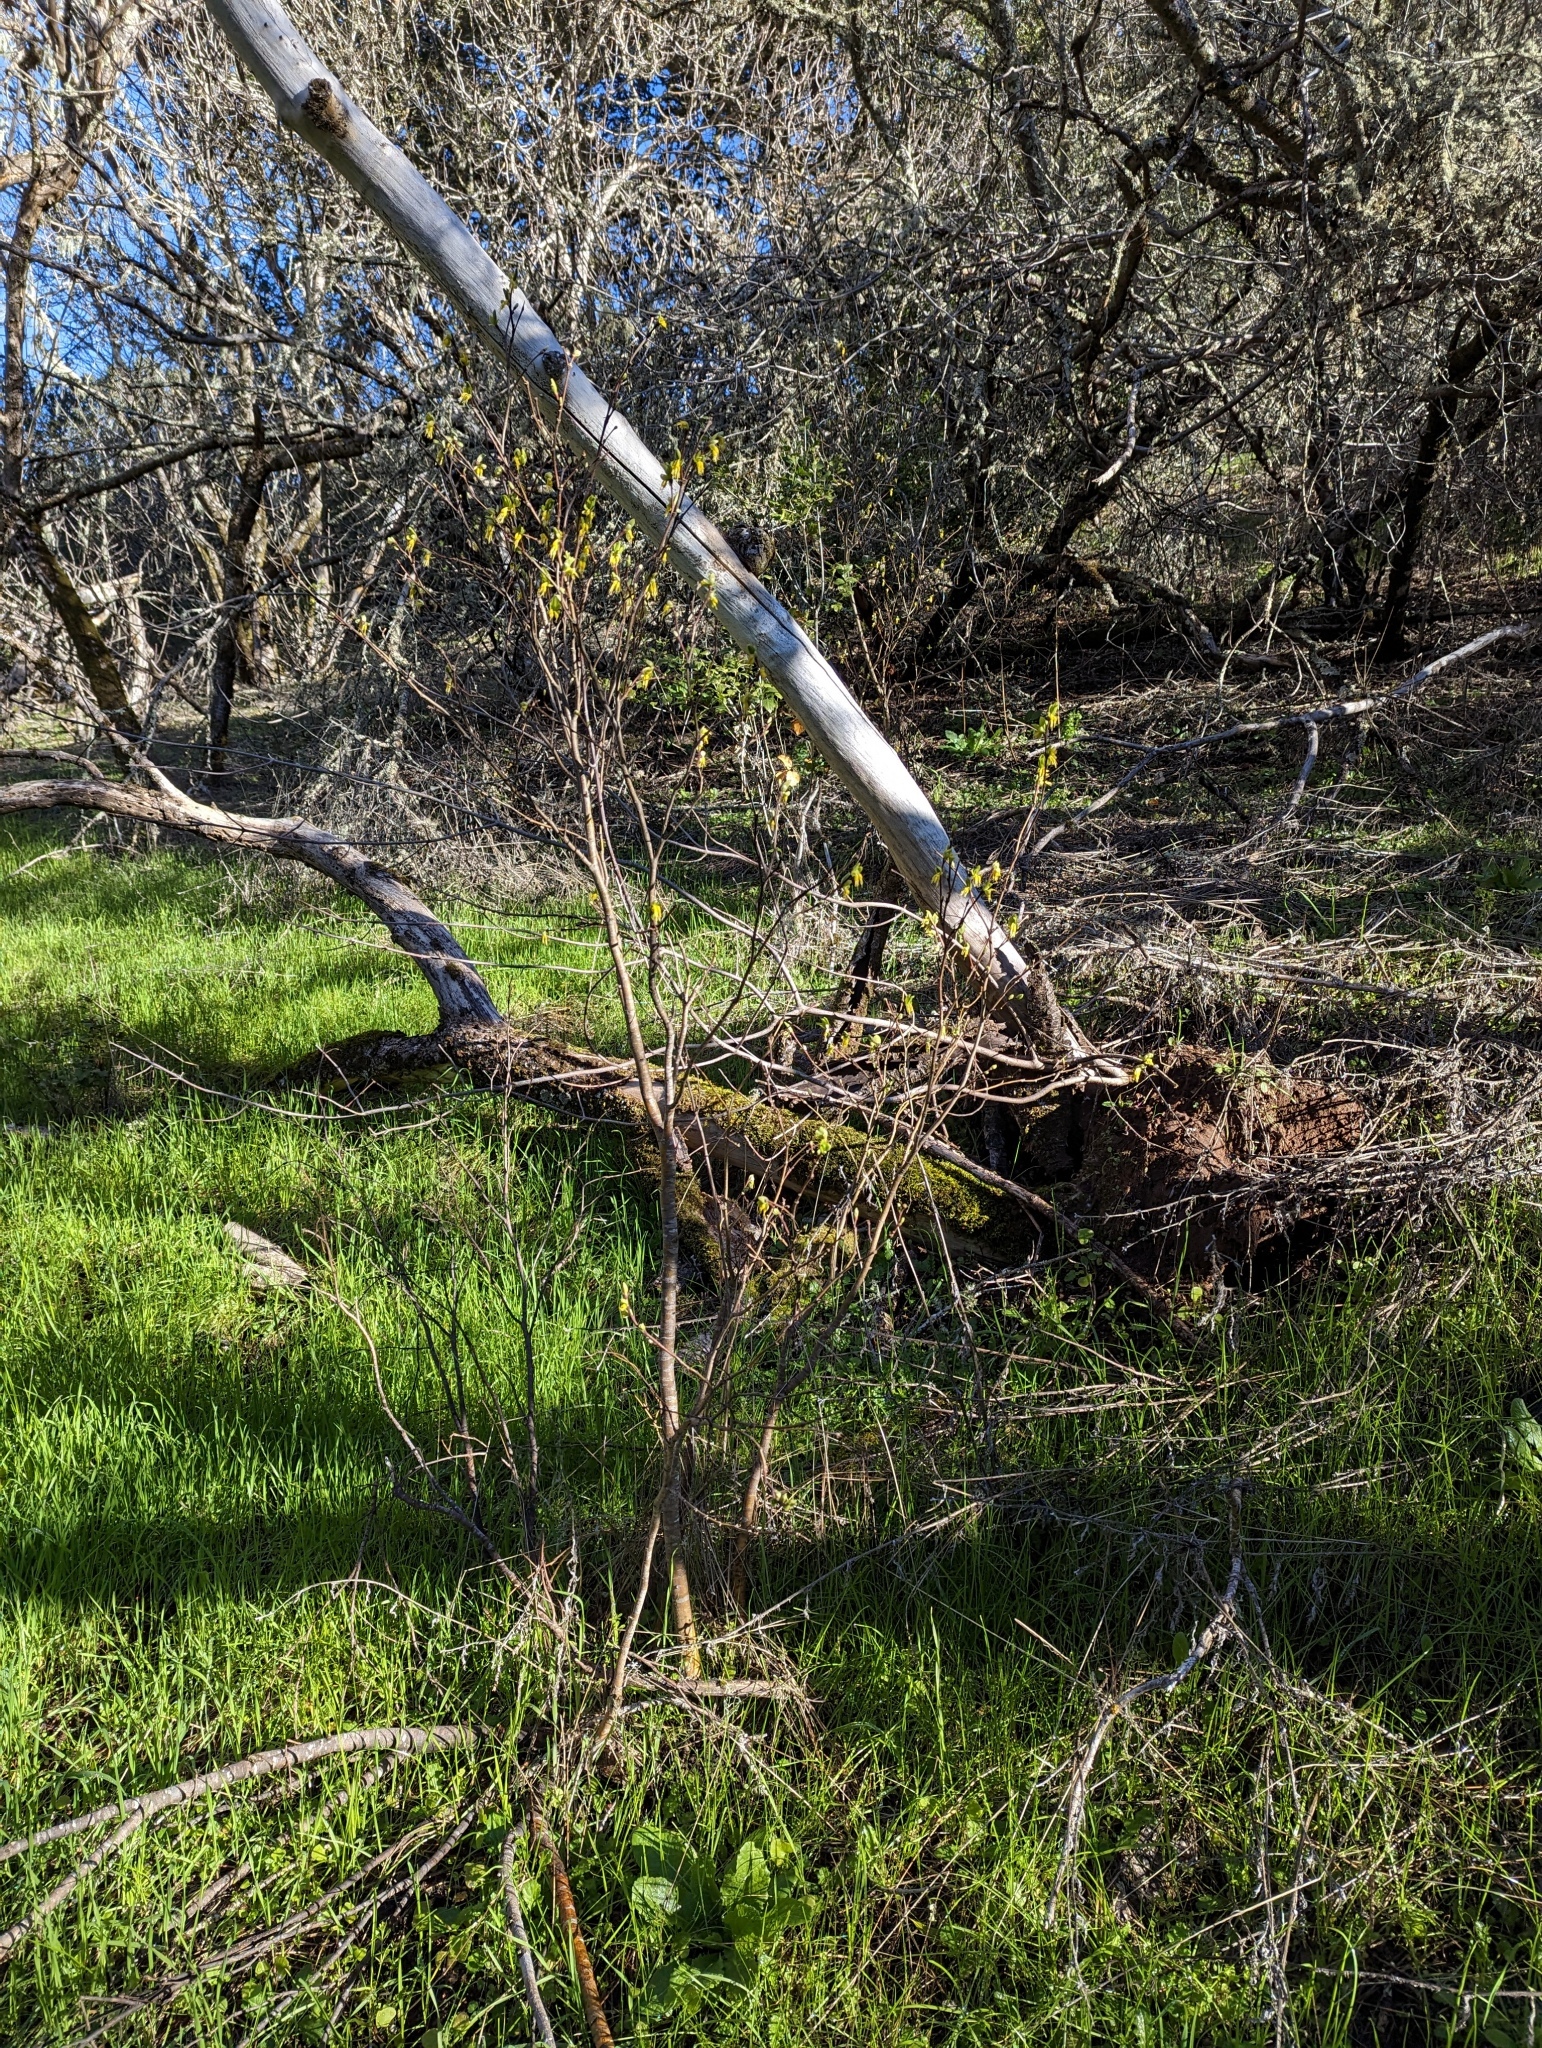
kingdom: Plantae
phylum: Tracheophyta
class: Magnoliopsida
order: Malvales
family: Thymelaeaceae
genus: Dirca
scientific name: Dirca occidentalis
